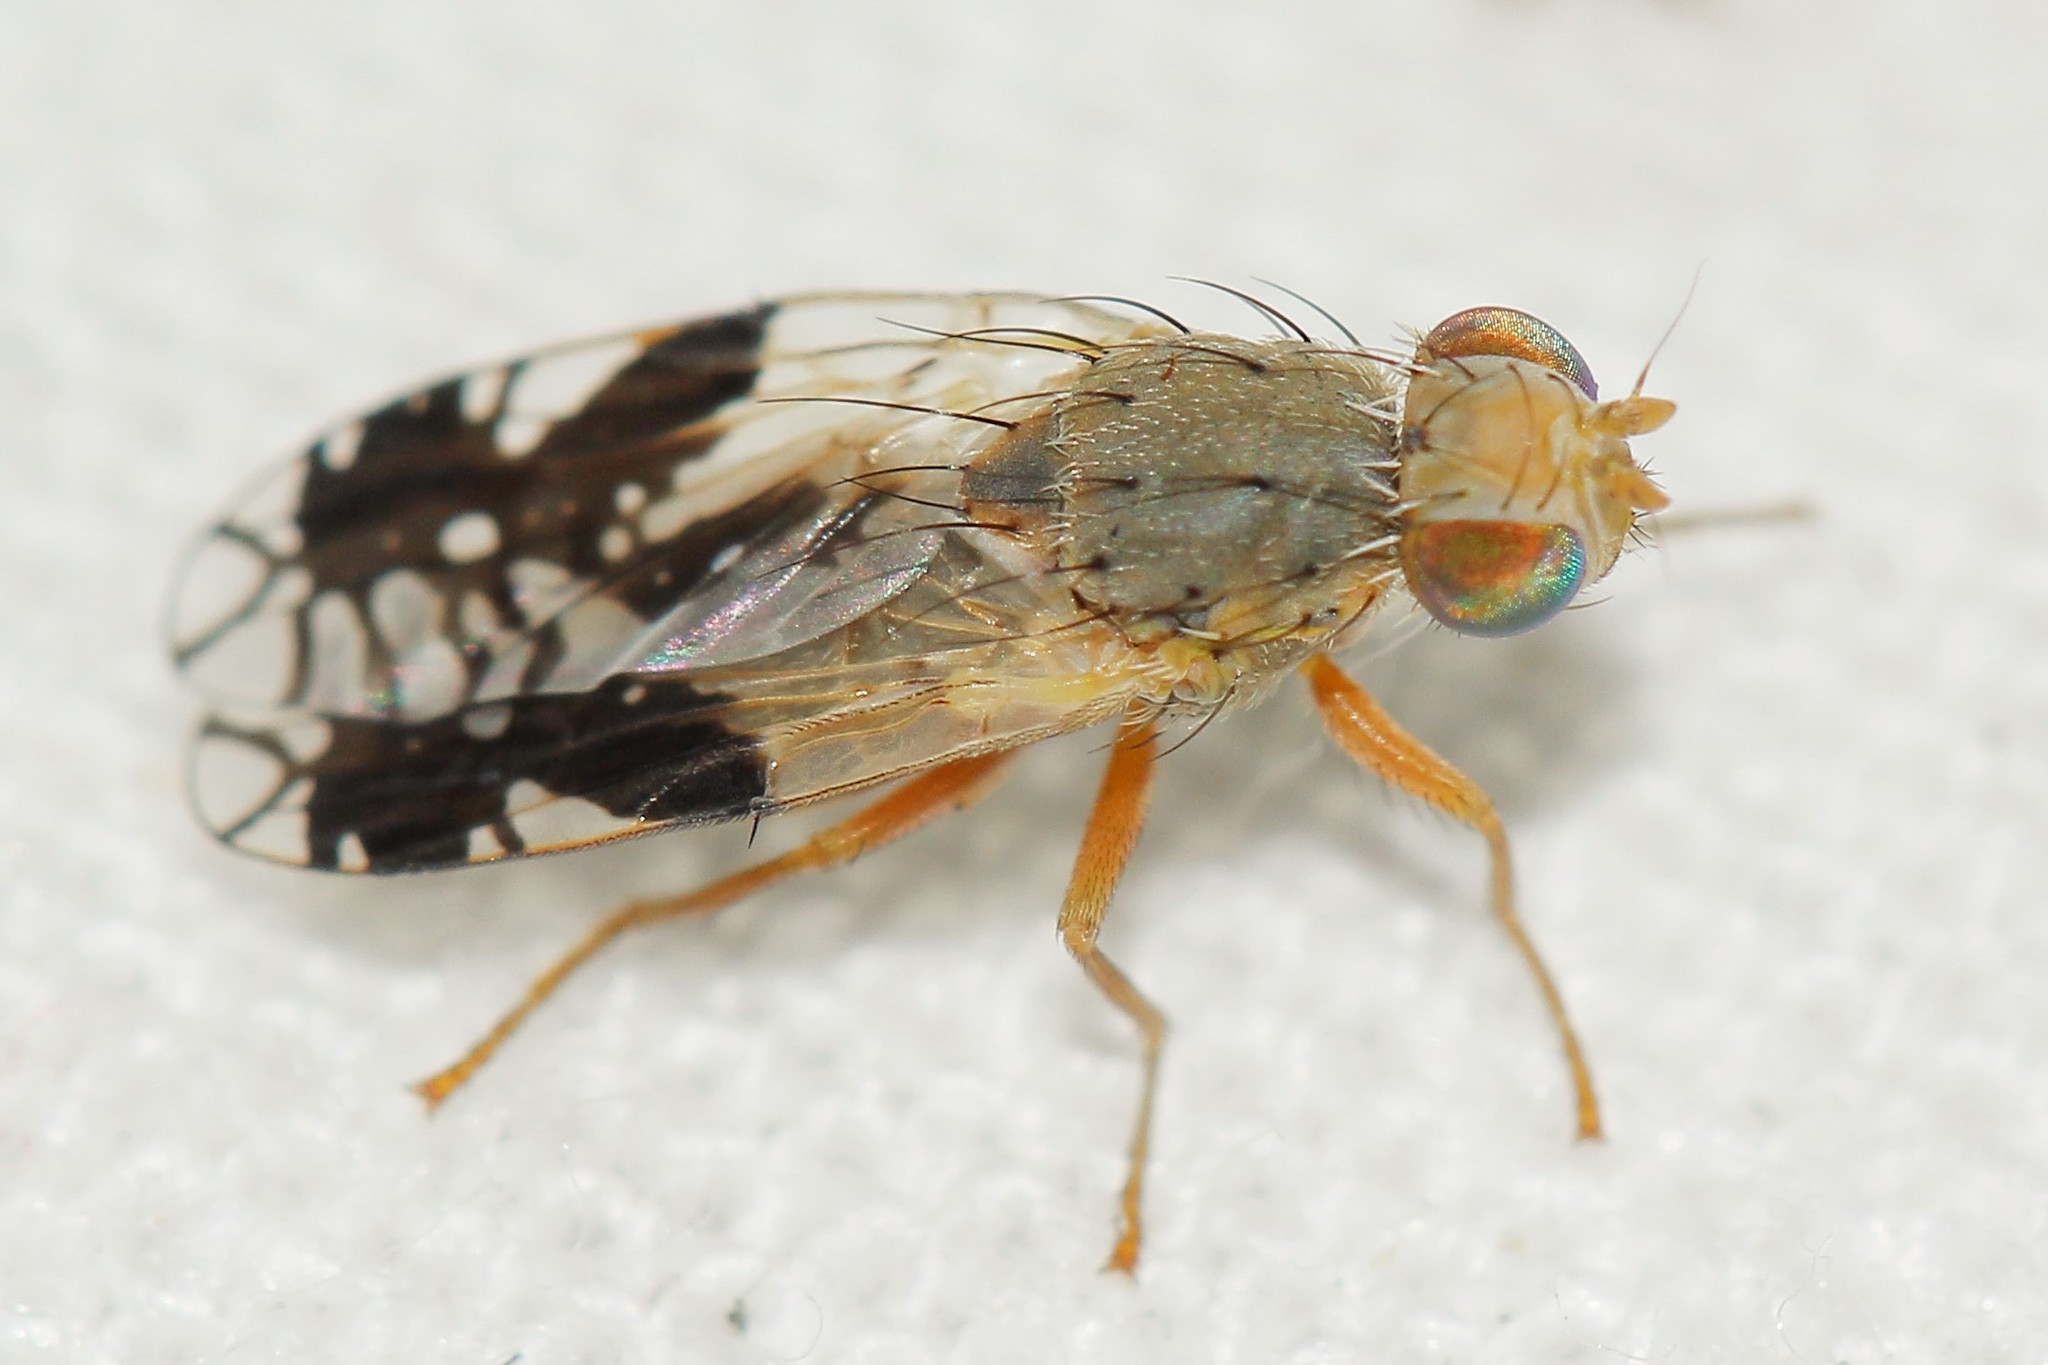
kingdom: Animalia
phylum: Arthropoda
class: Insecta
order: Diptera
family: Tephritidae
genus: Tephritis
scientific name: Tephritis hurvitzi
